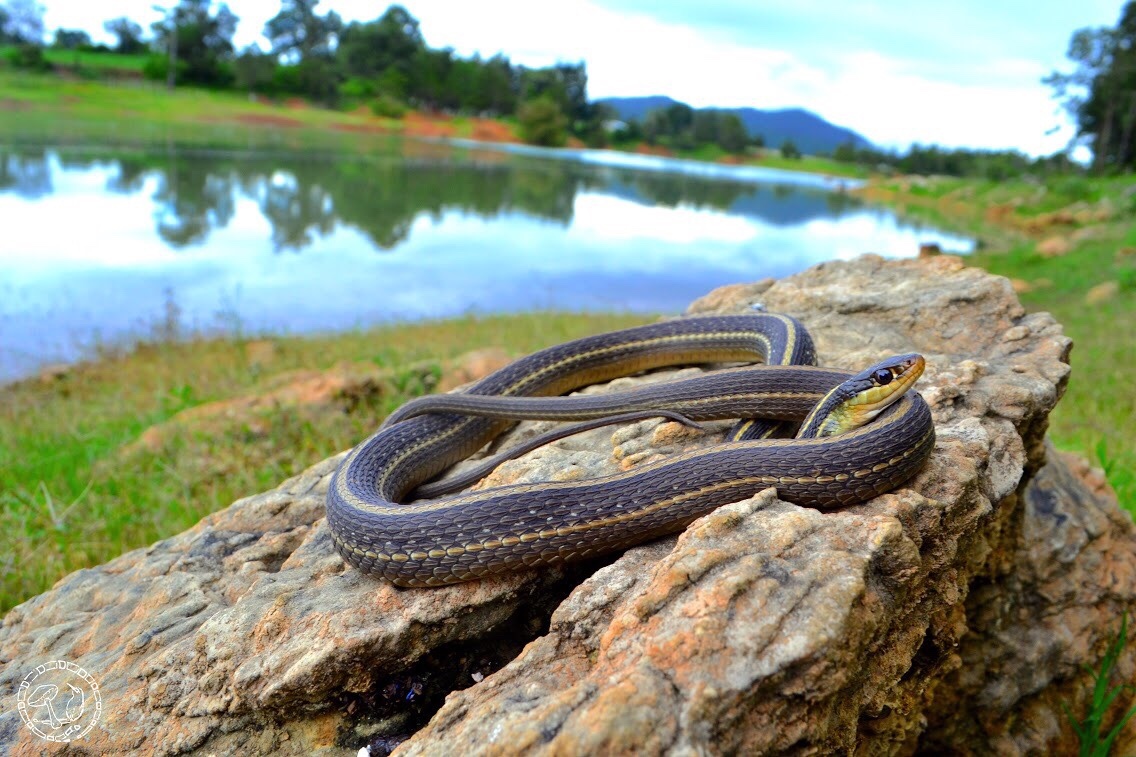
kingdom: Animalia
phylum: Chordata
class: Squamata
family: Colubridae
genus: Thamnophis
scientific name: Thamnophis proximus
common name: Western ribbon snake
